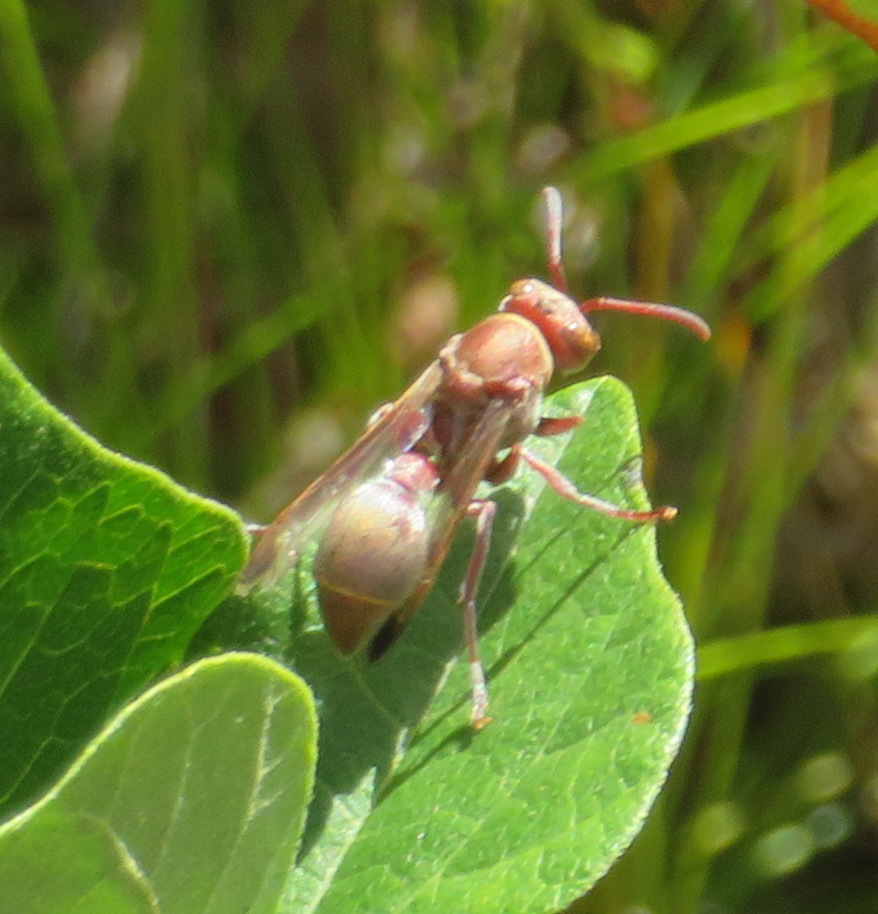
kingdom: Animalia
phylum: Arthropoda
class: Insecta
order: Hymenoptera
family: Vespidae
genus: Ropalidia
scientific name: Ropalidia distigma
